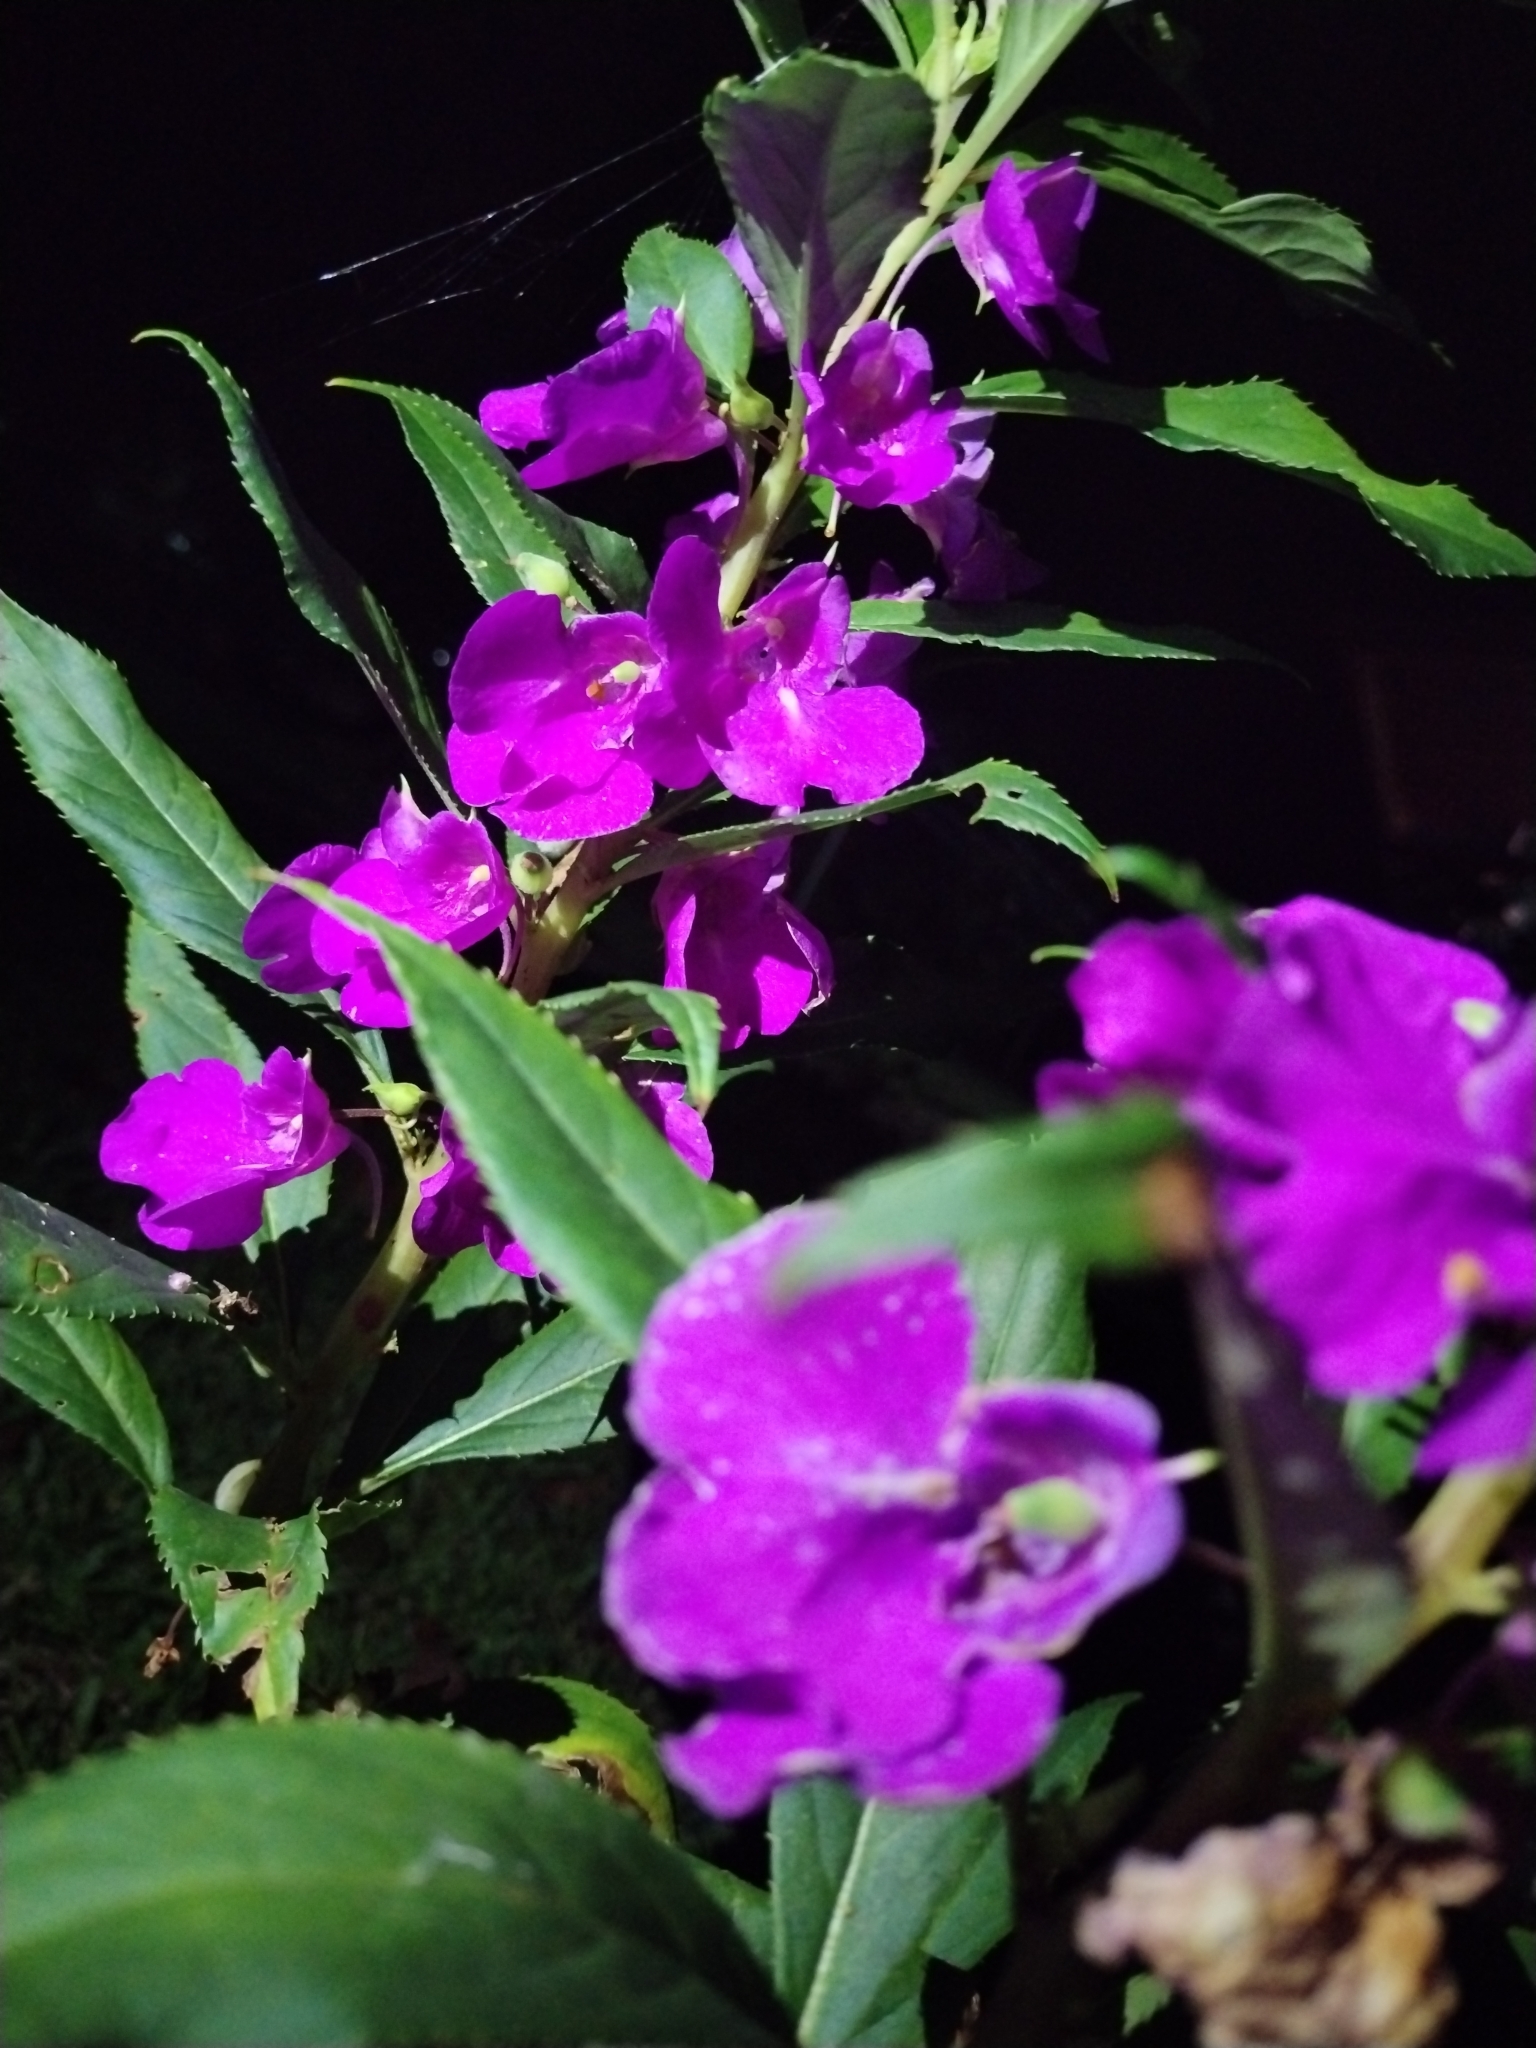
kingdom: Plantae
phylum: Tracheophyta
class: Magnoliopsida
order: Ericales
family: Balsaminaceae
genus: Impatiens
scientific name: Impatiens balsamina
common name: Balsam
